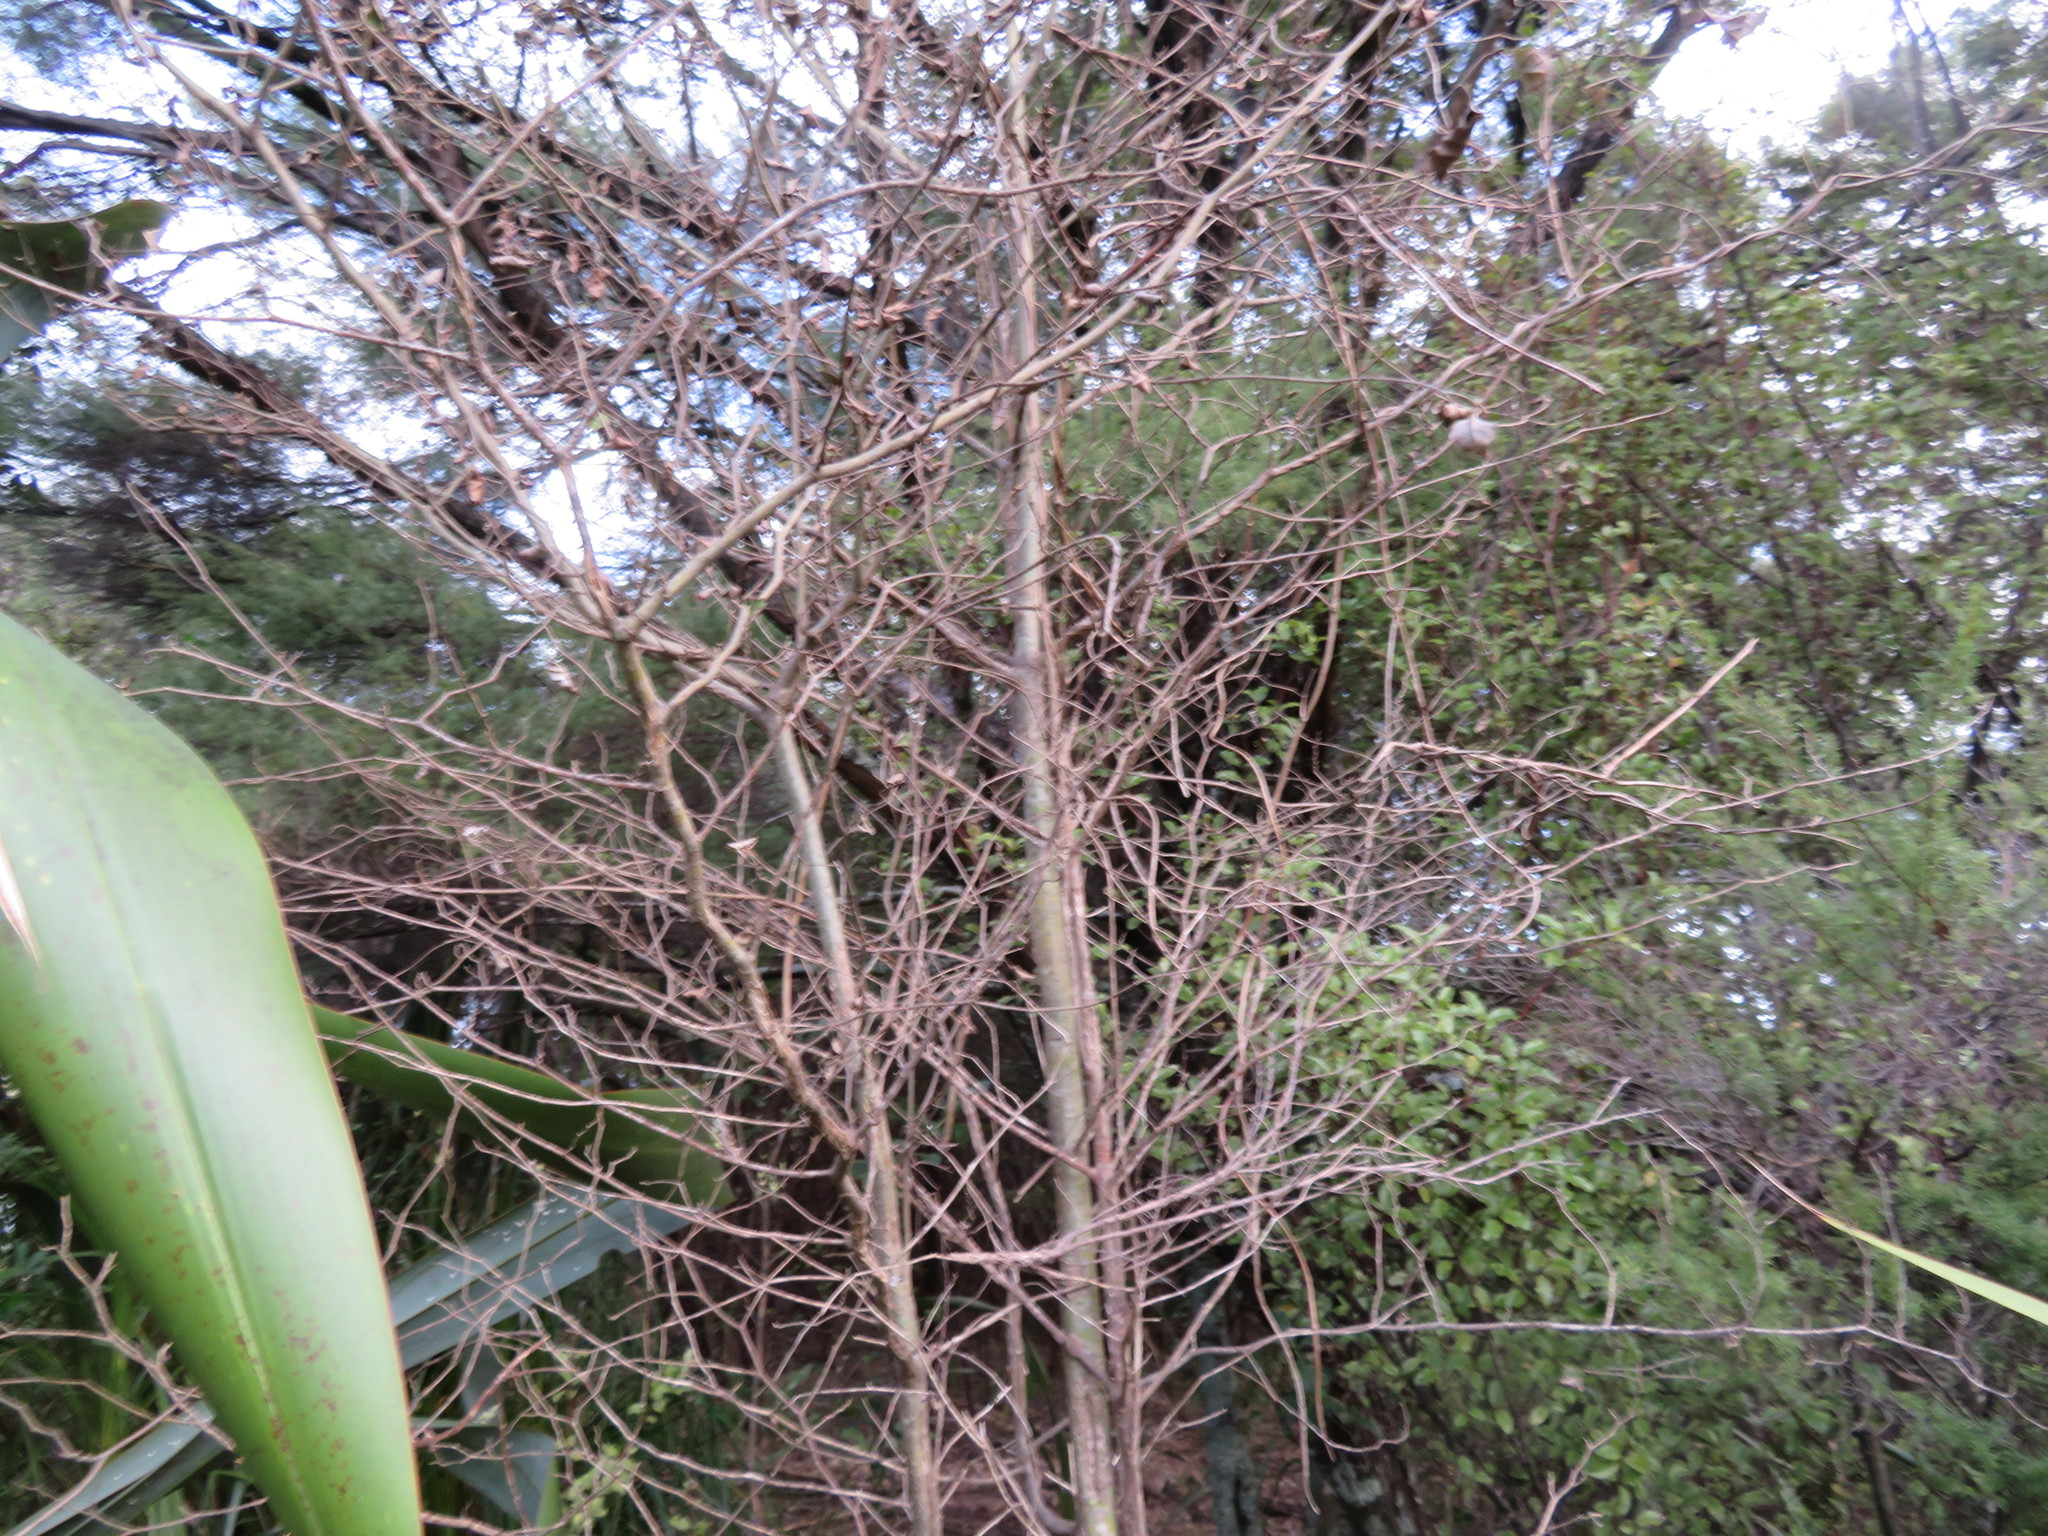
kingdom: Plantae
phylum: Tracheophyta
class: Magnoliopsida
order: Asterales
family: Rousseaceae
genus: Carpodetus
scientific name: Carpodetus serratus
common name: White mapau
